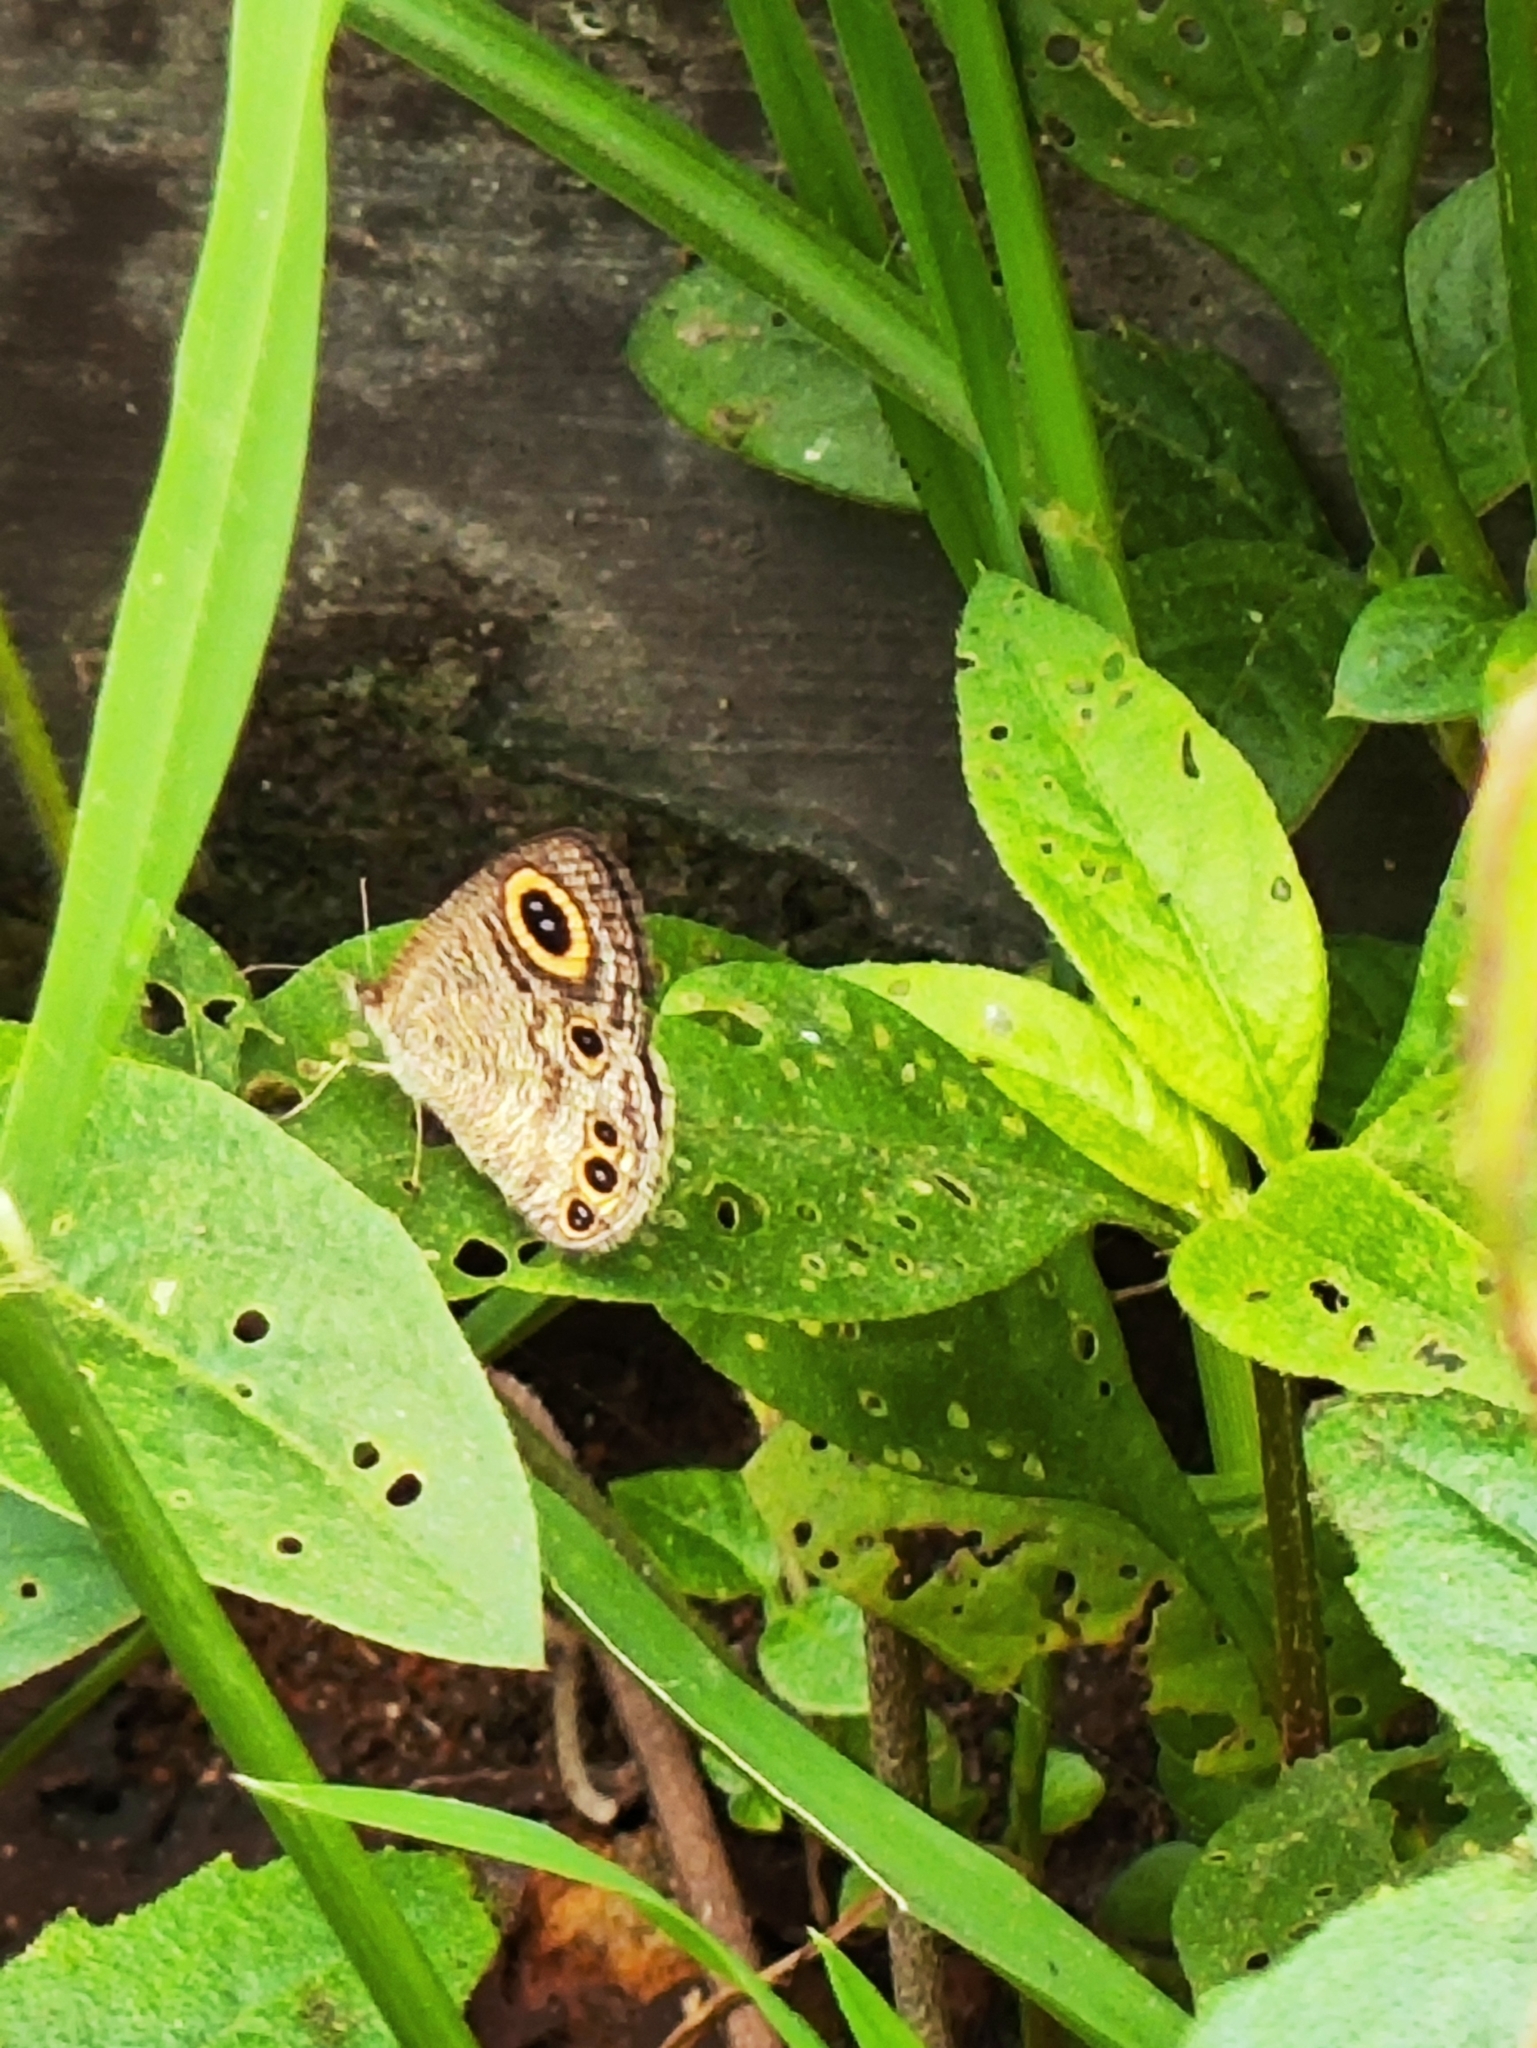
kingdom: Animalia
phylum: Arthropoda
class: Insecta
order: Lepidoptera
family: Nymphalidae
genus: Ypthima
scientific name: Ypthima huebneri
